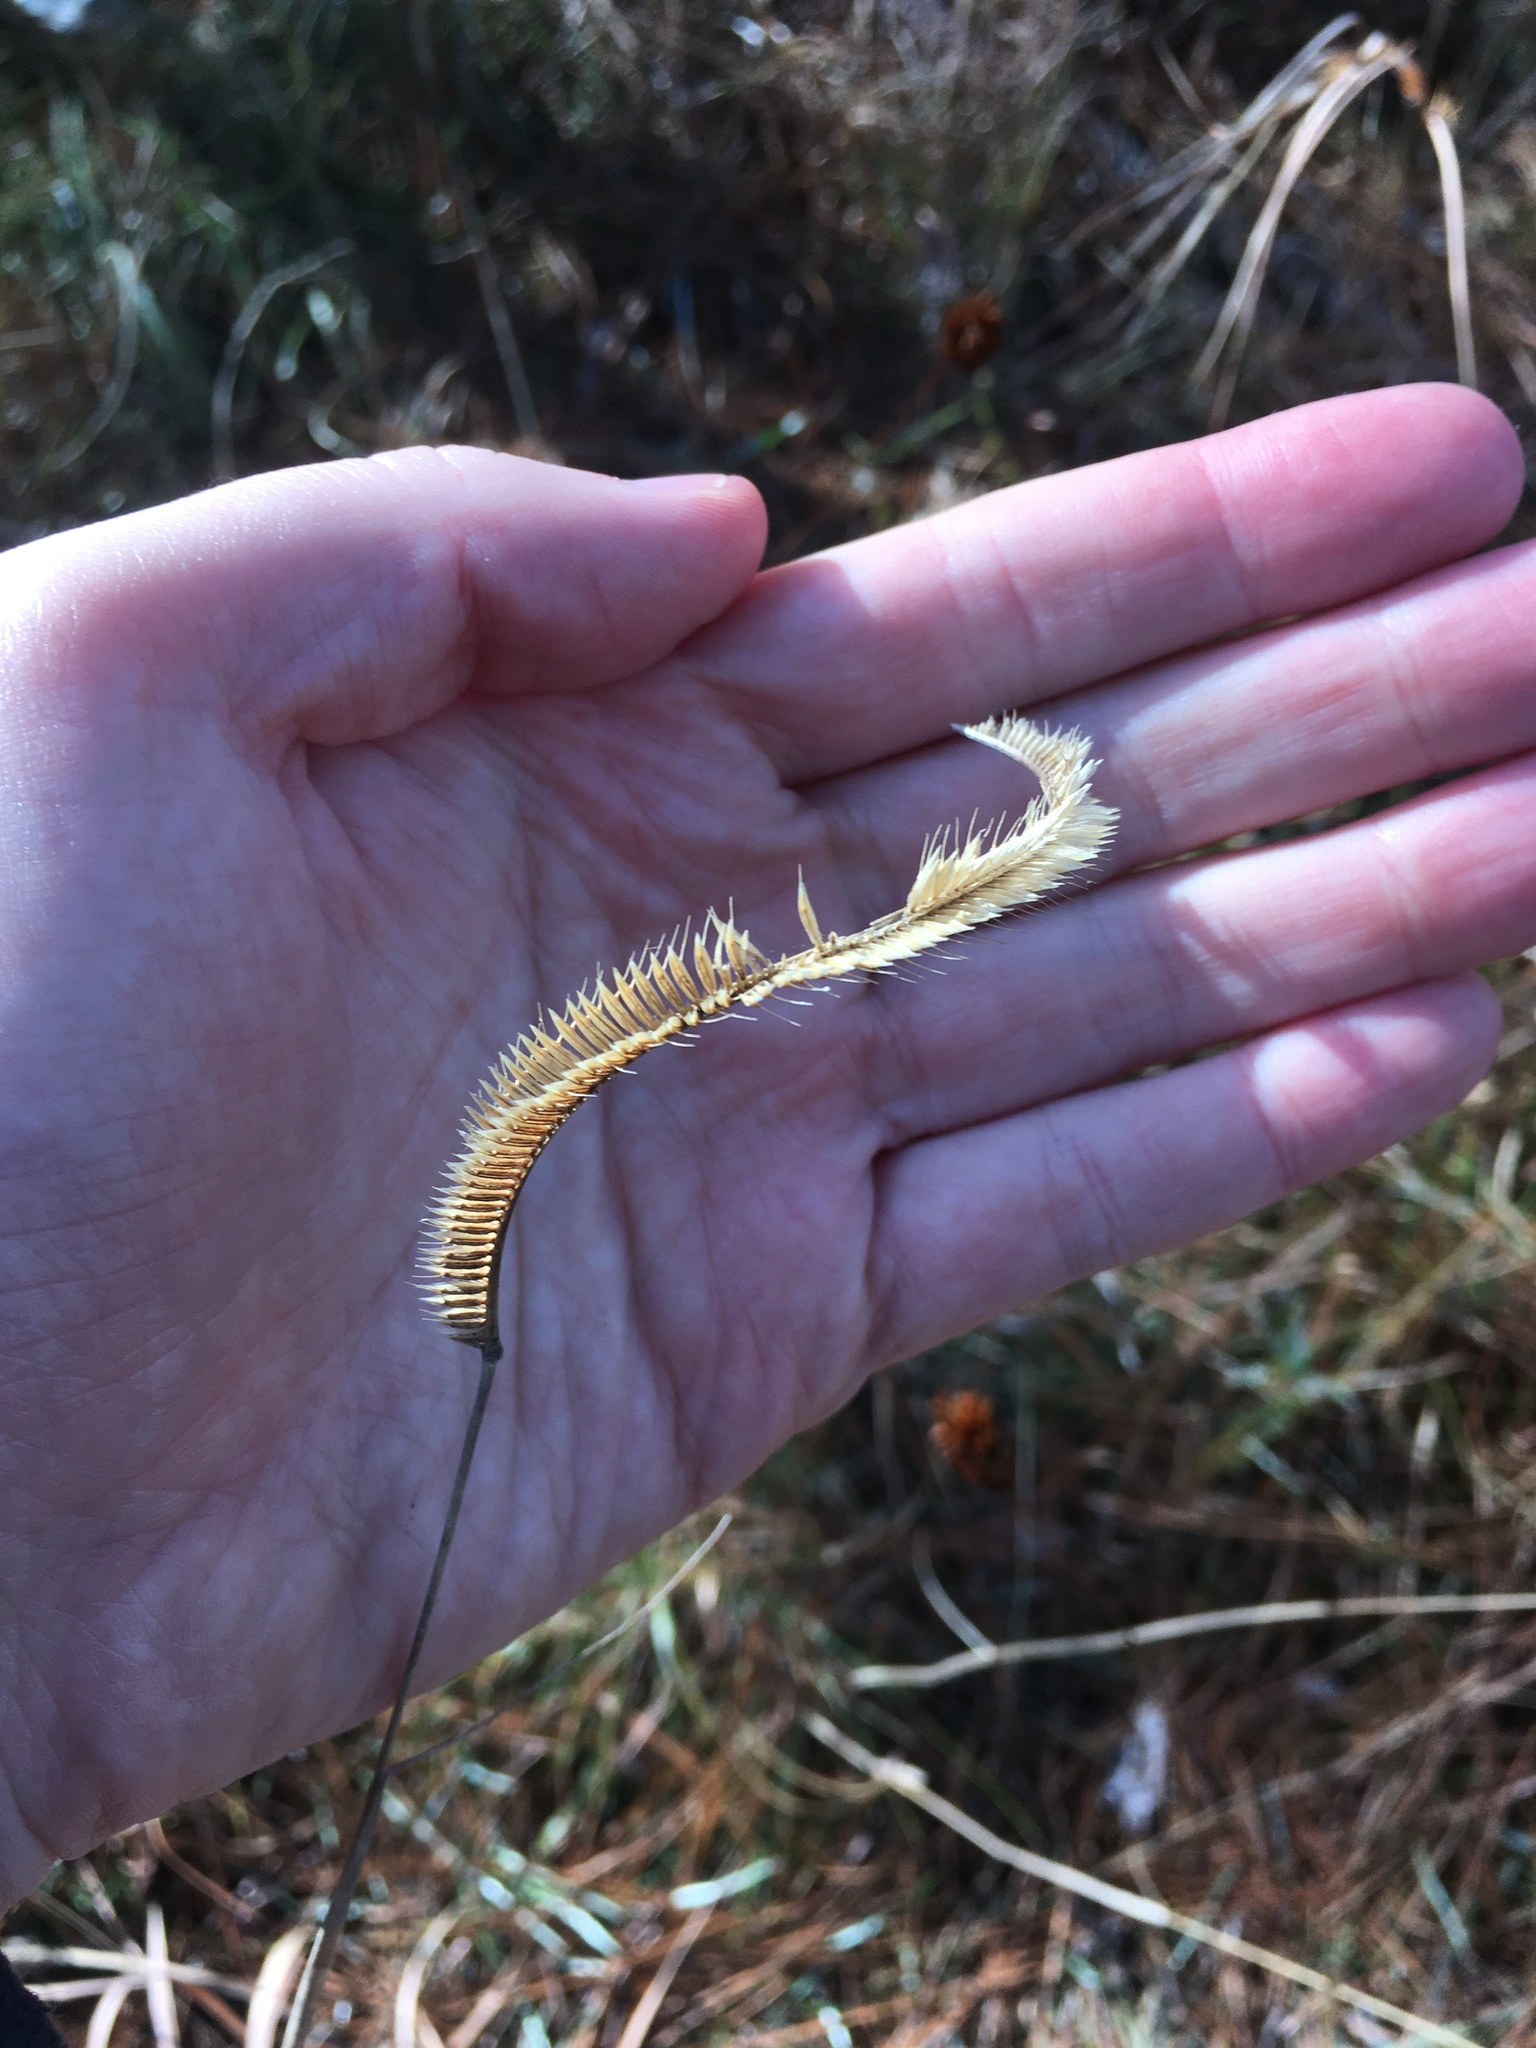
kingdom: Plantae
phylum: Tracheophyta
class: Liliopsida
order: Poales
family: Poaceae
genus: Ctenium
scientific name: Ctenium aromaticum
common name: Toothache grass
